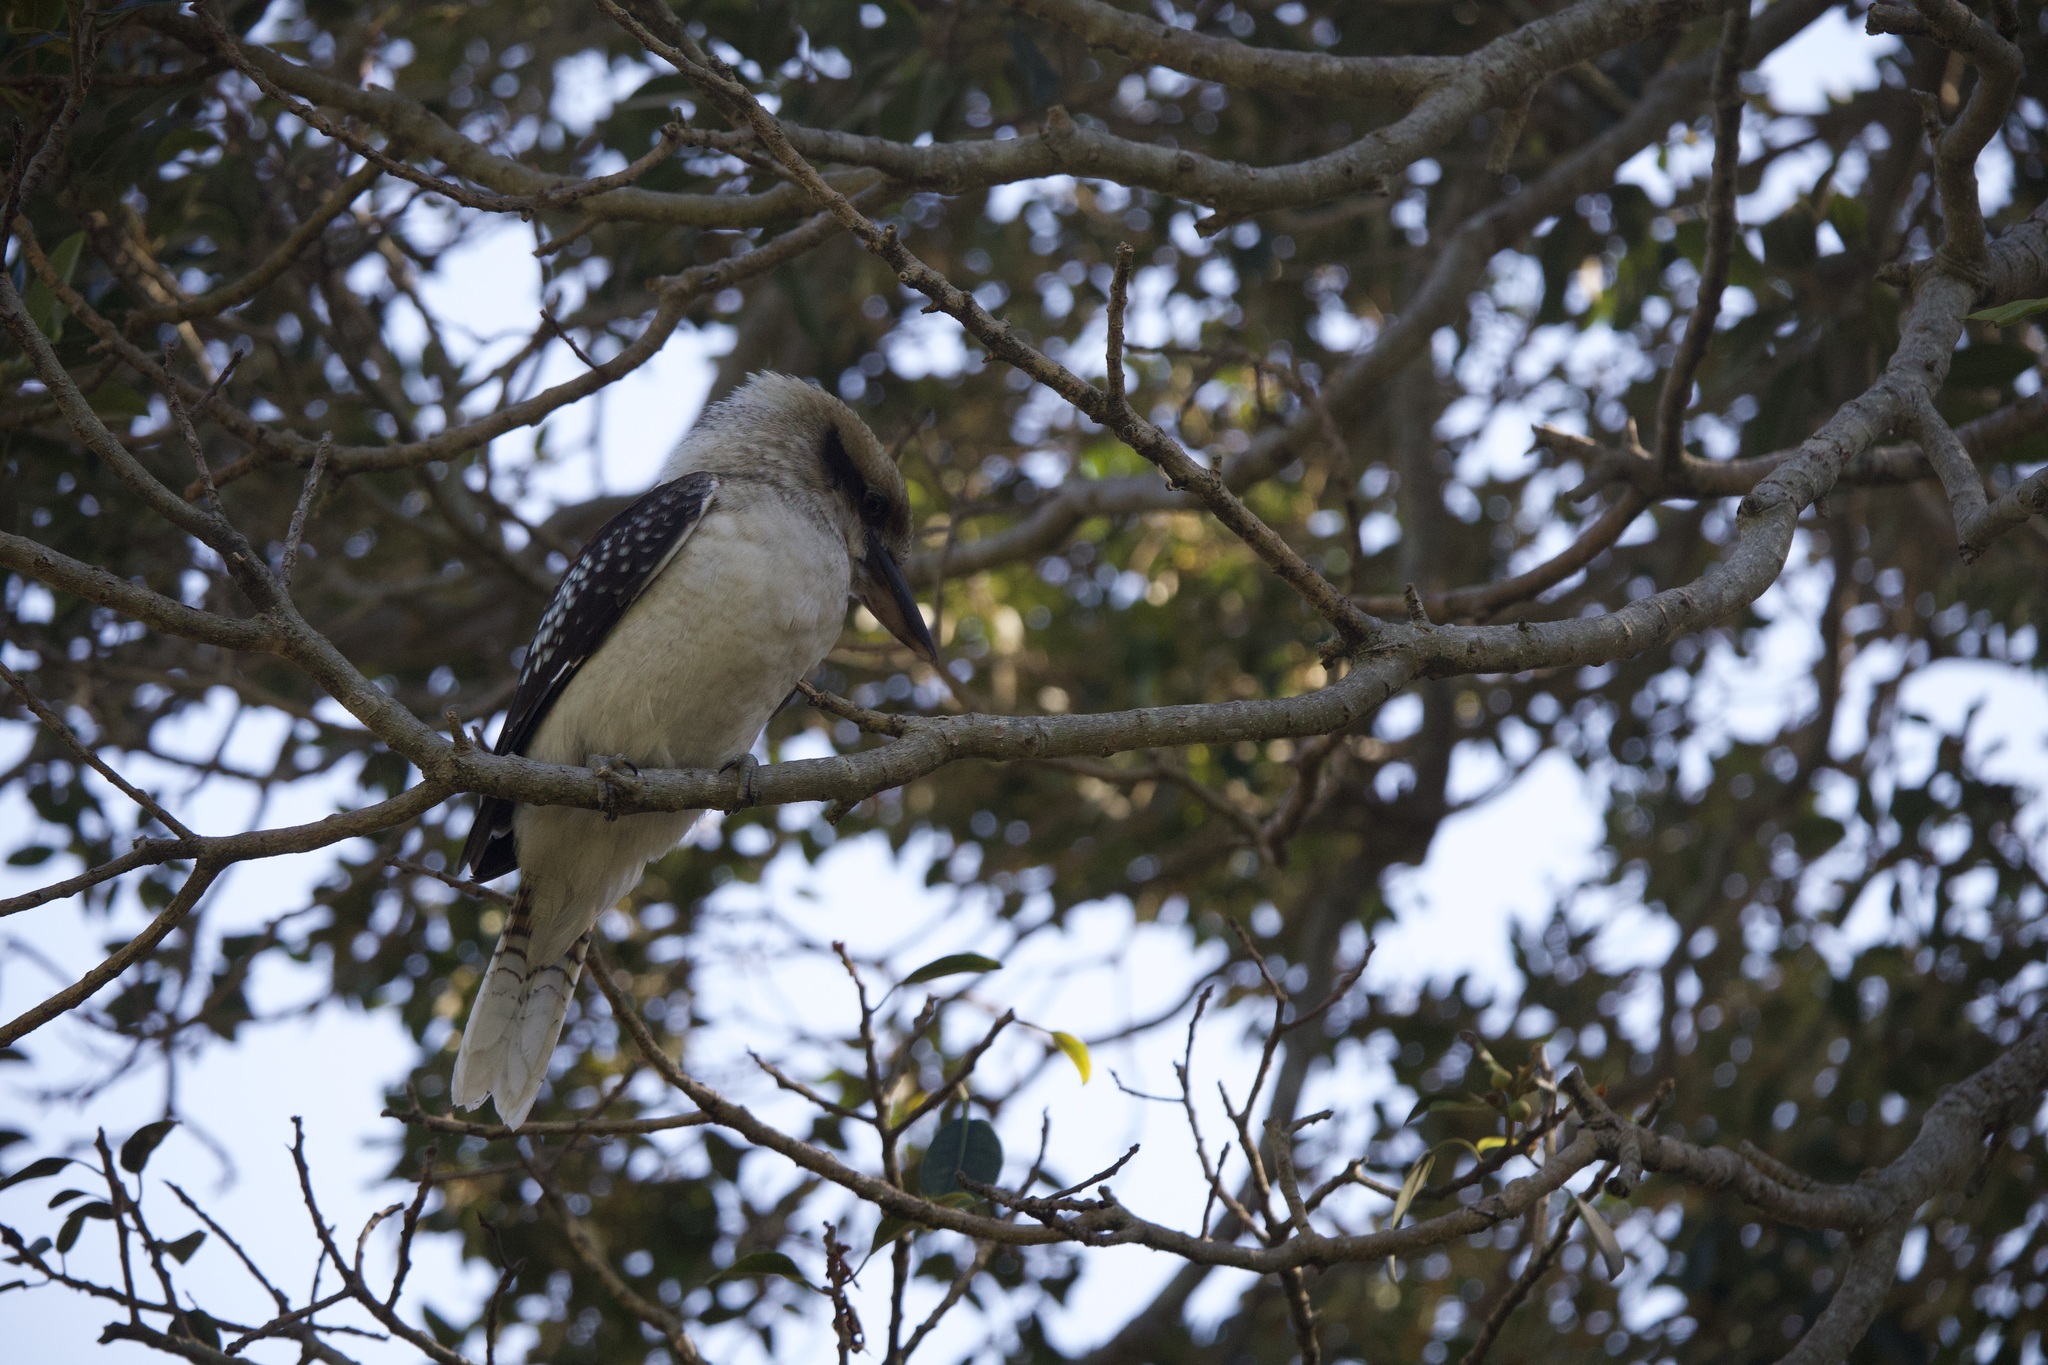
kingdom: Animalia
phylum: Chordata
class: Aves
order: Coraciiformes
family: Alcedinidae
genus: Dacelo
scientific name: Dacelo novaeguineae
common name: Laughing kookaburra
